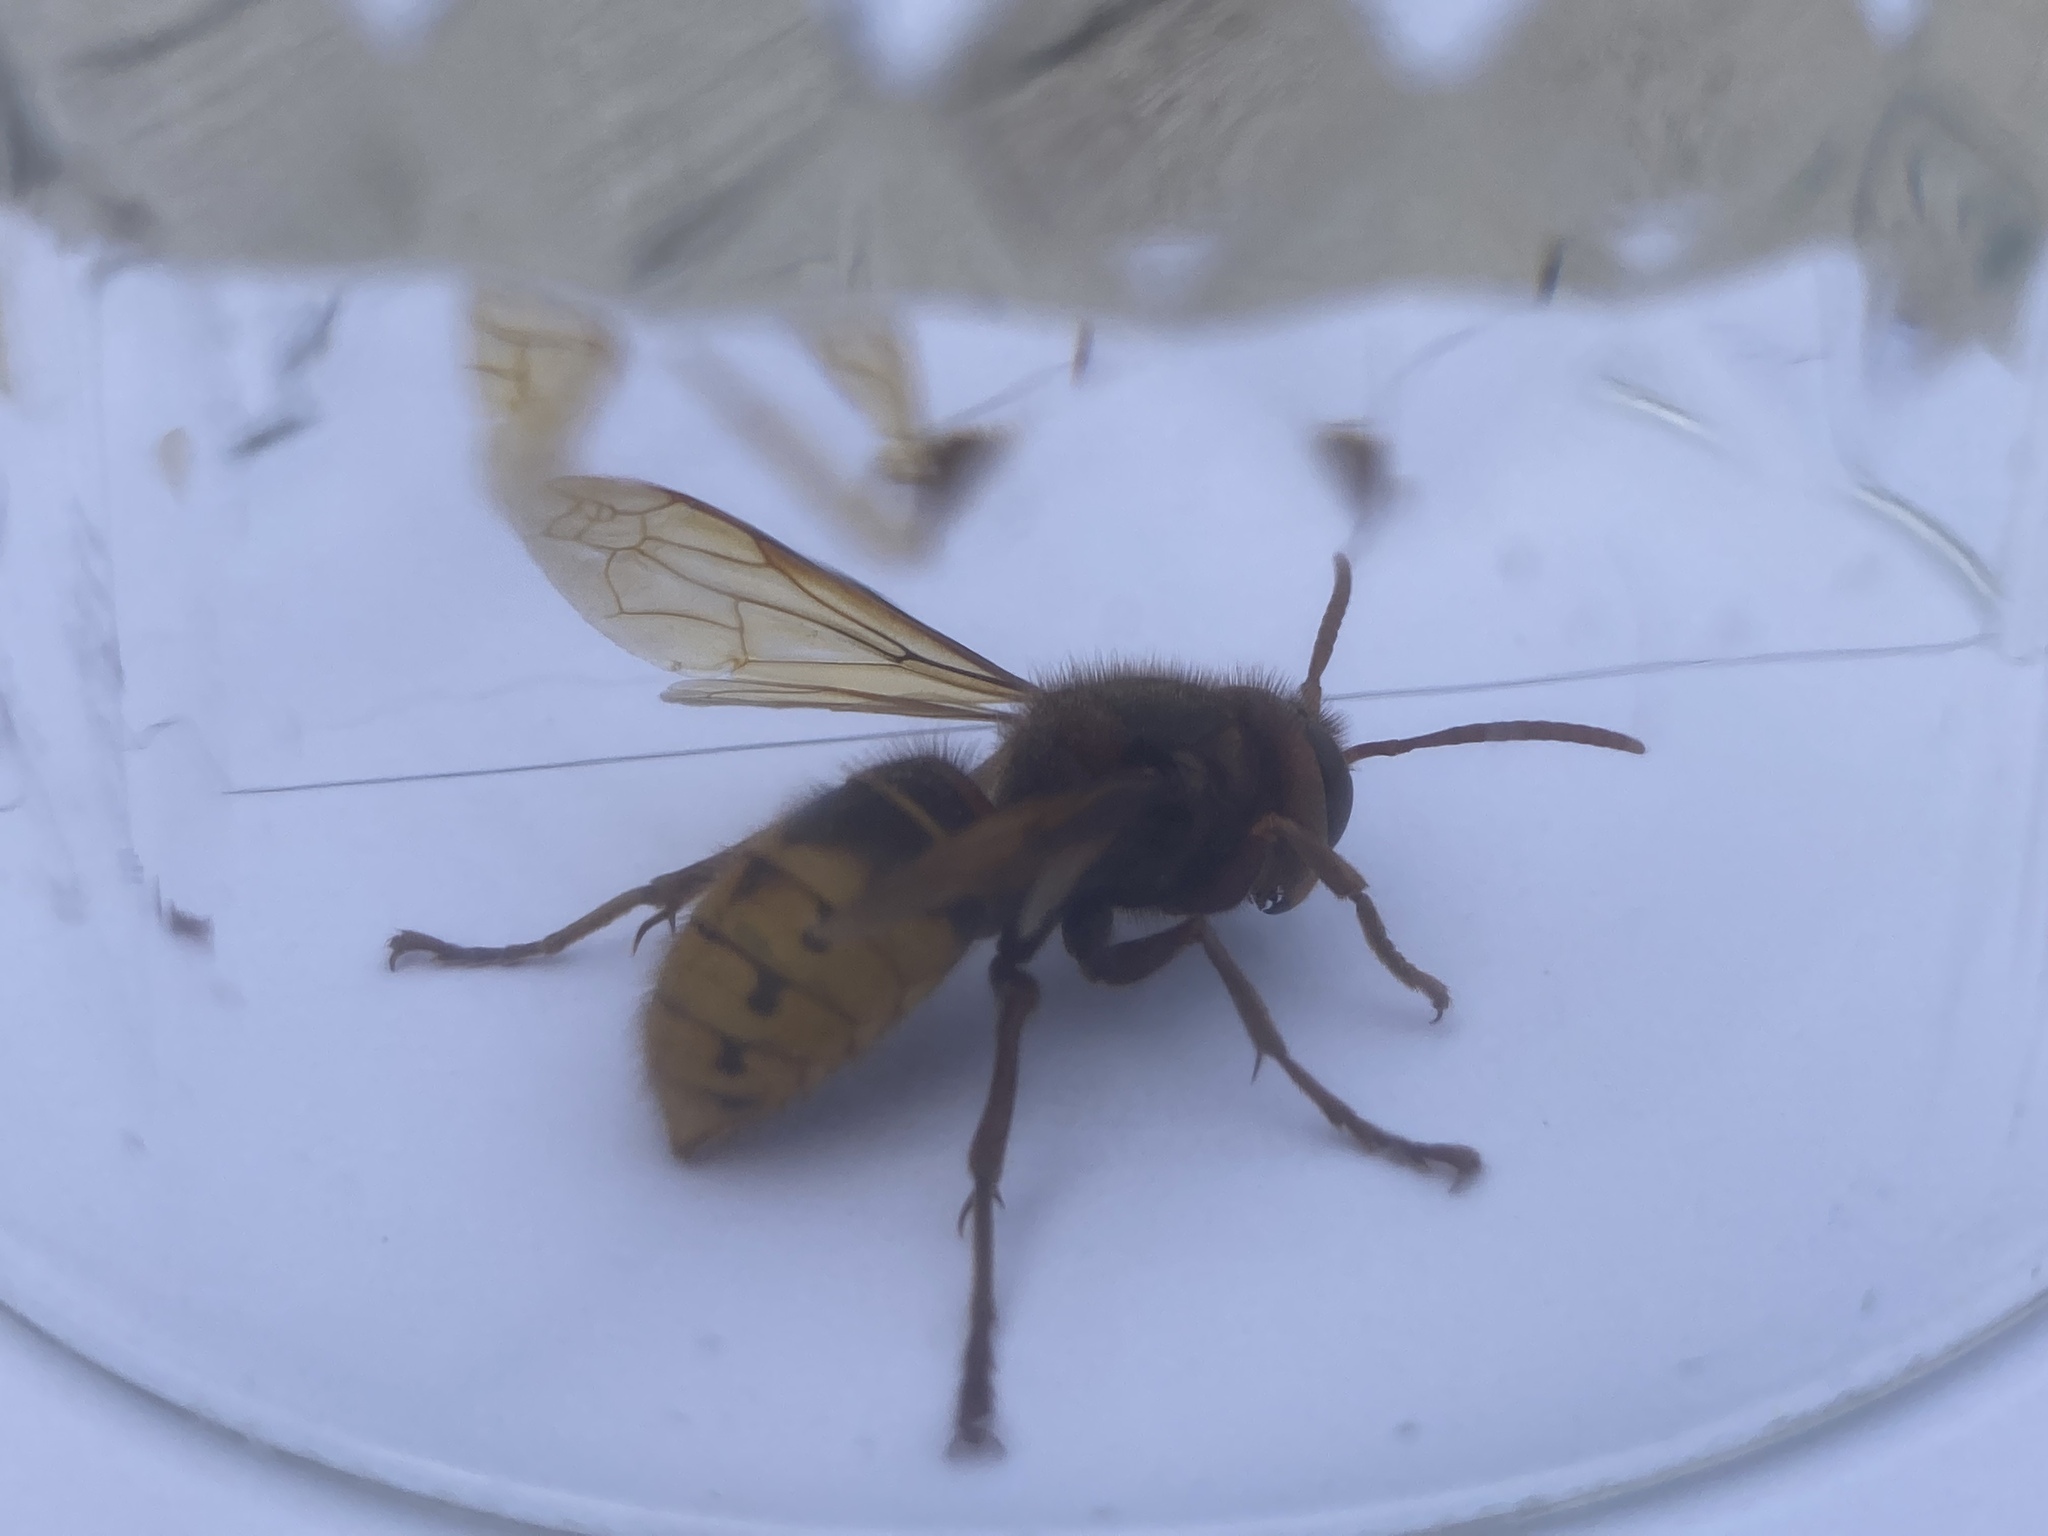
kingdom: Animalia
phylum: Arthropoda
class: Insecta
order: Hymenoptera
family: Vespidae
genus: Vespa
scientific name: Vespa crabro
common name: Hornet
